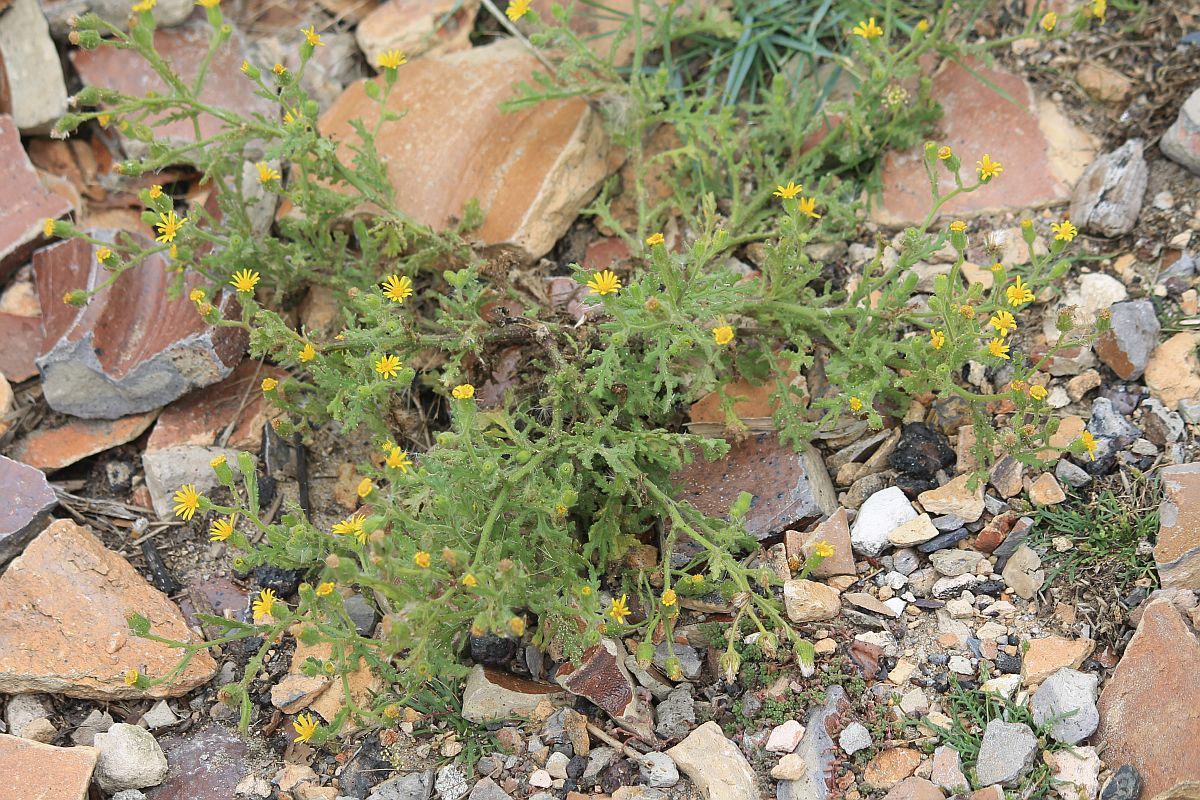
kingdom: Plantae
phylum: Tracheophyta
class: Magnoliopsida
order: Asterales
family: Asteraceae
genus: Senecio
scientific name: Senecio viscosus
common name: Sticky groundsel
